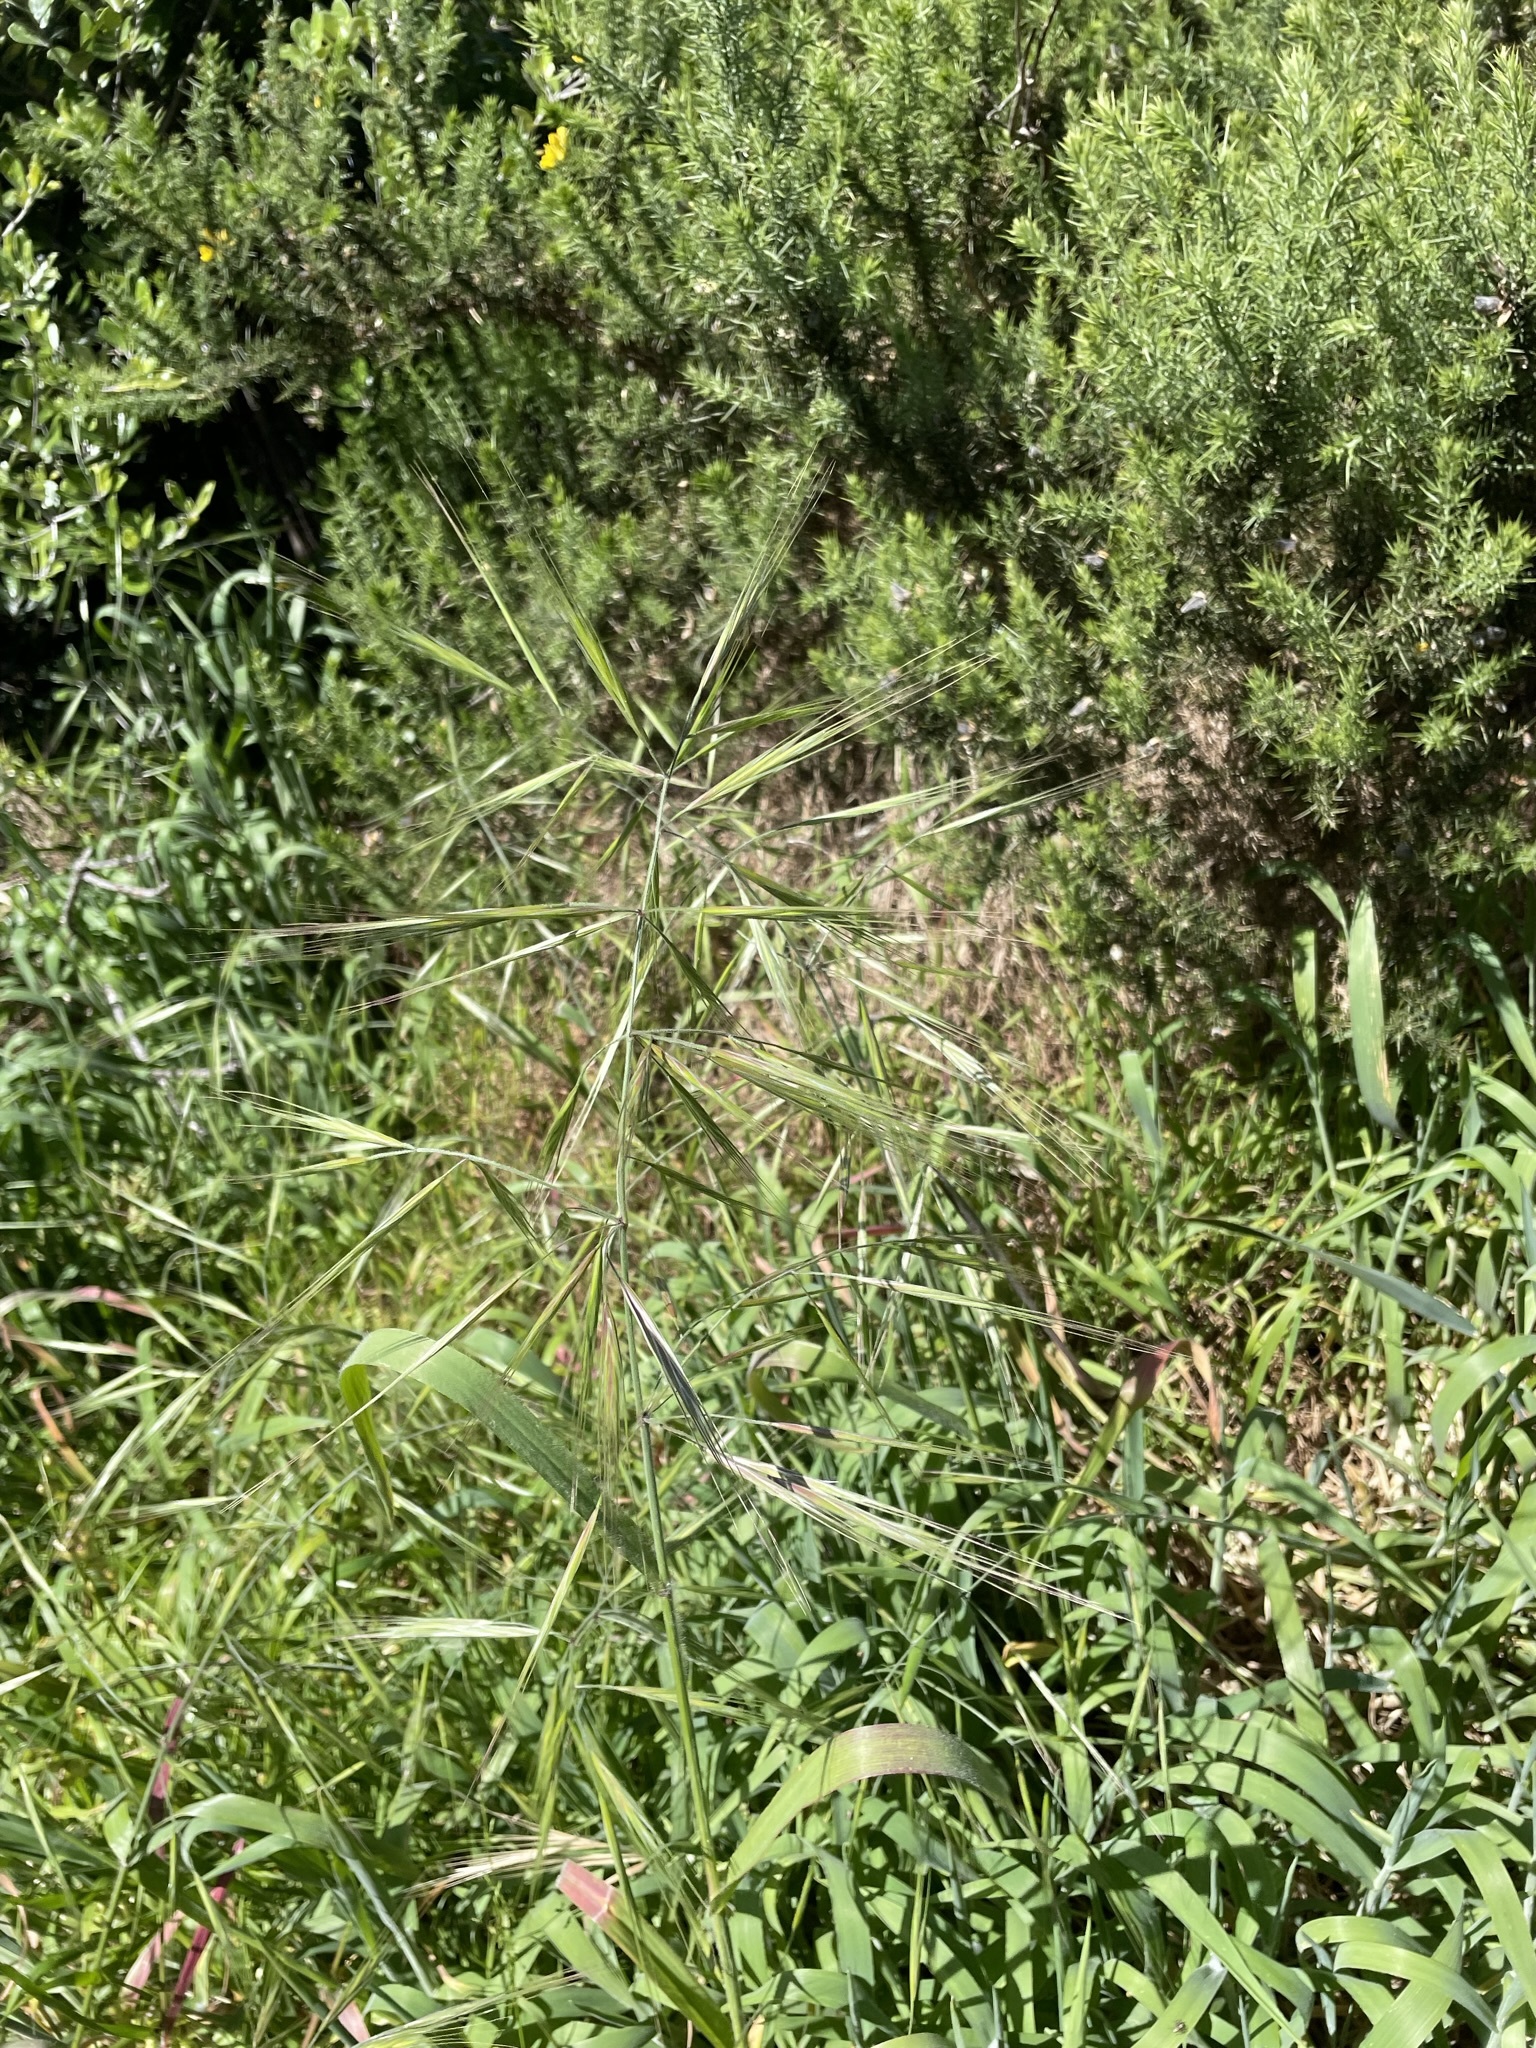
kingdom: Plantae
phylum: Tracheophyta
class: Liliopsida
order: Poales
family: Poaceae
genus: Bromus
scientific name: Bromus diandrus
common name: Ripgut brome
